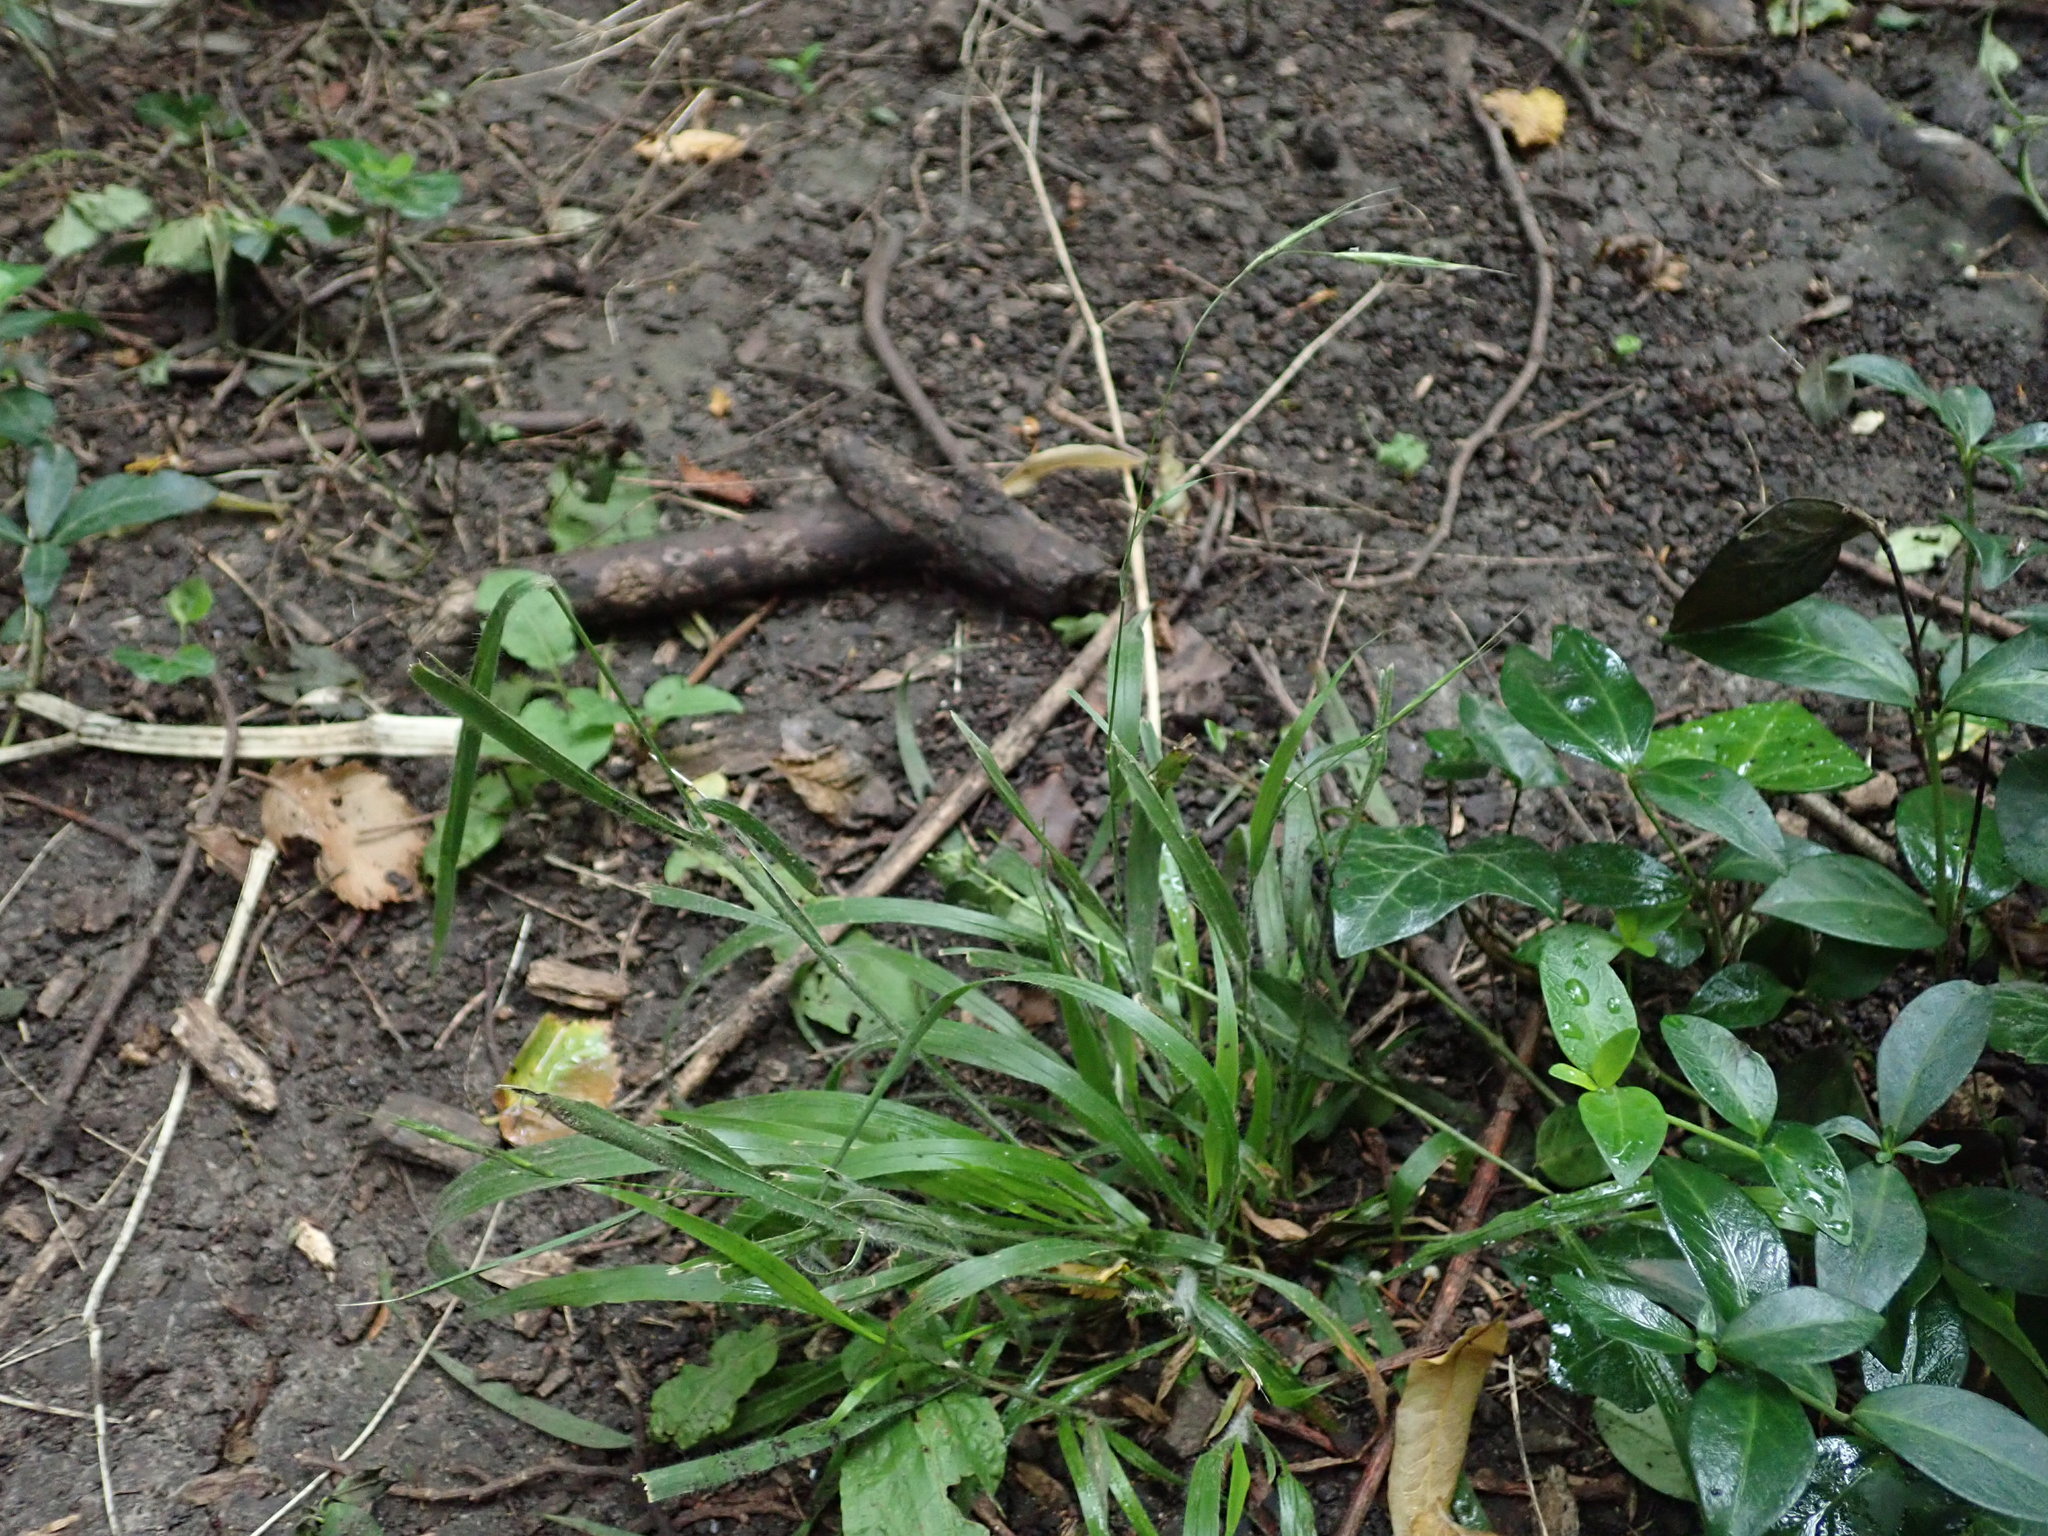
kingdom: Plantae
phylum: Tracheophyta
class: Liliopsida
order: Poales
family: Poaceae
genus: Brachypodium
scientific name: Brachypodium sylvaticum
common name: False-brome
